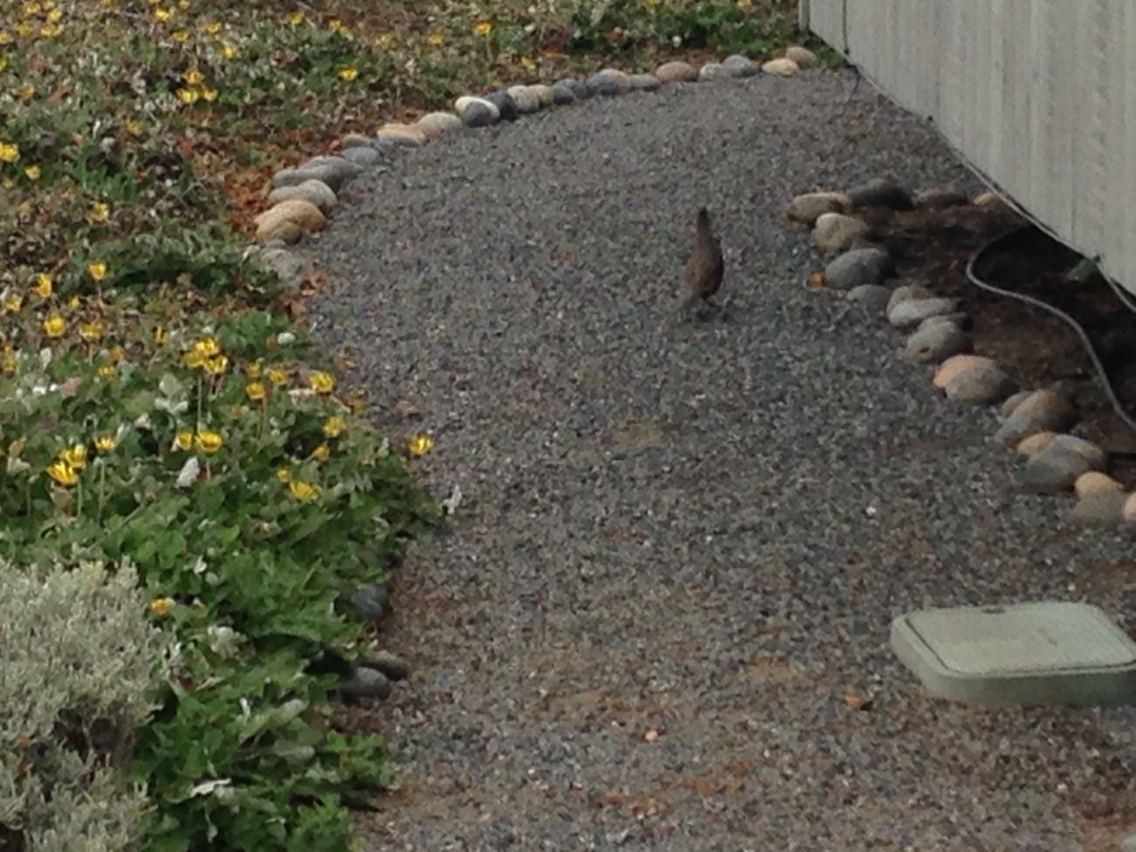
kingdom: Animalia
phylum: Chordata
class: Aves
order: Galliformes
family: Odontophoridae
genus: Callipepla
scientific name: Callipepla californica
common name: California quail
